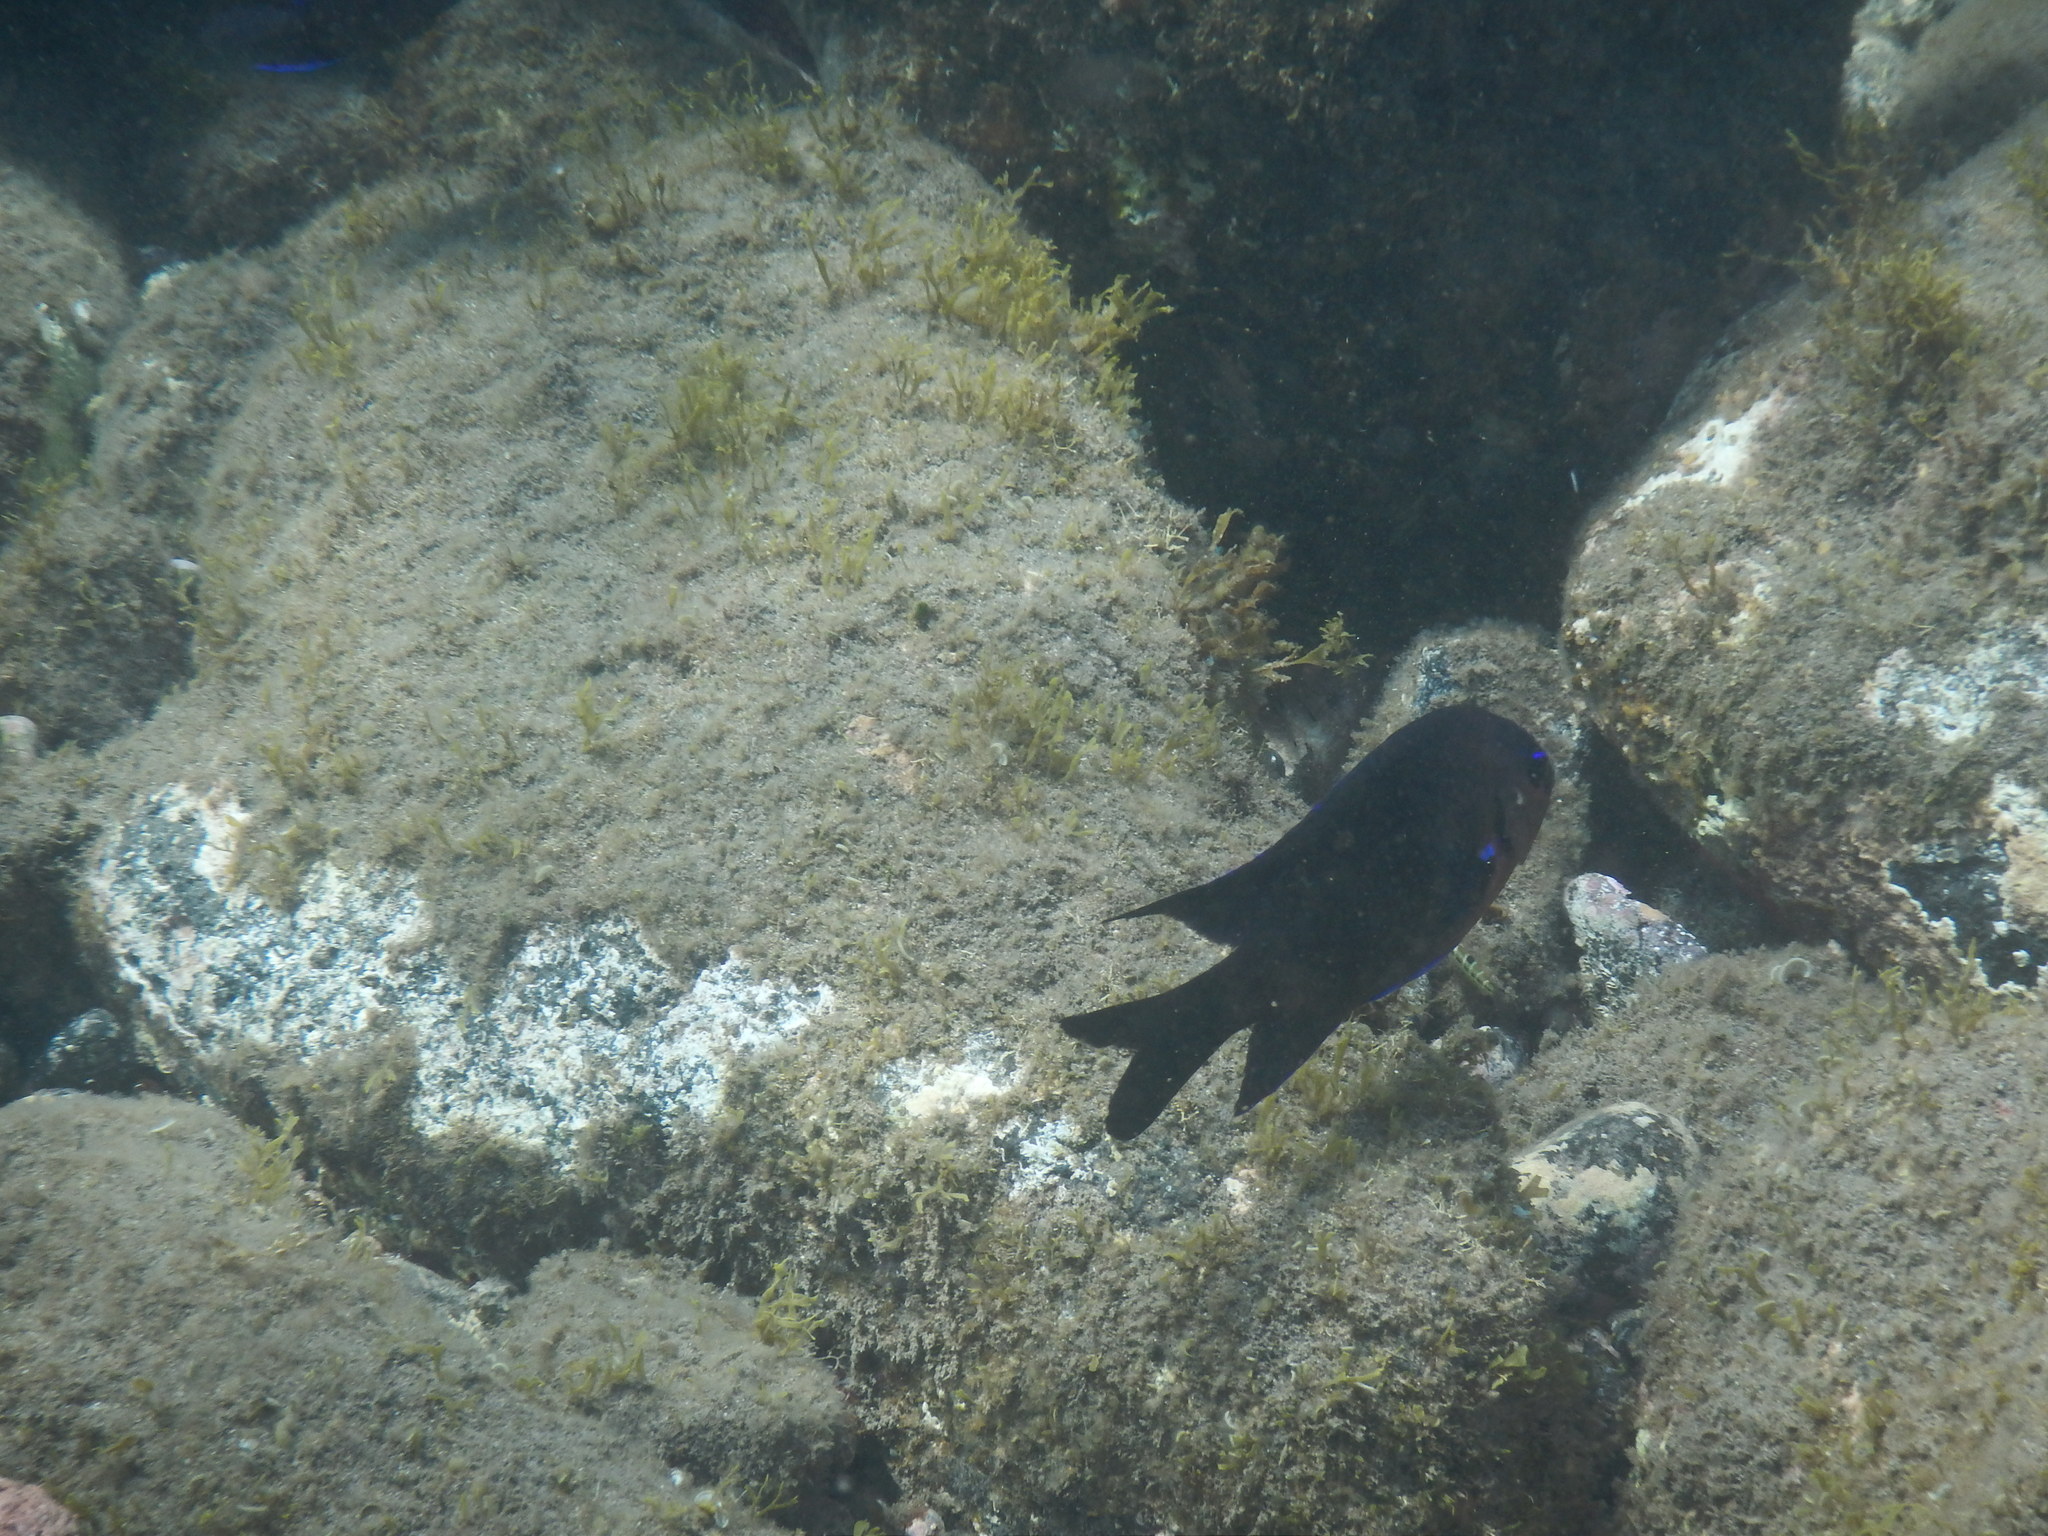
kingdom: Animalia
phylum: Chordata
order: Perciformes
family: Pomacentridae
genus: Similiparma
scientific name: Similiparma lurida
